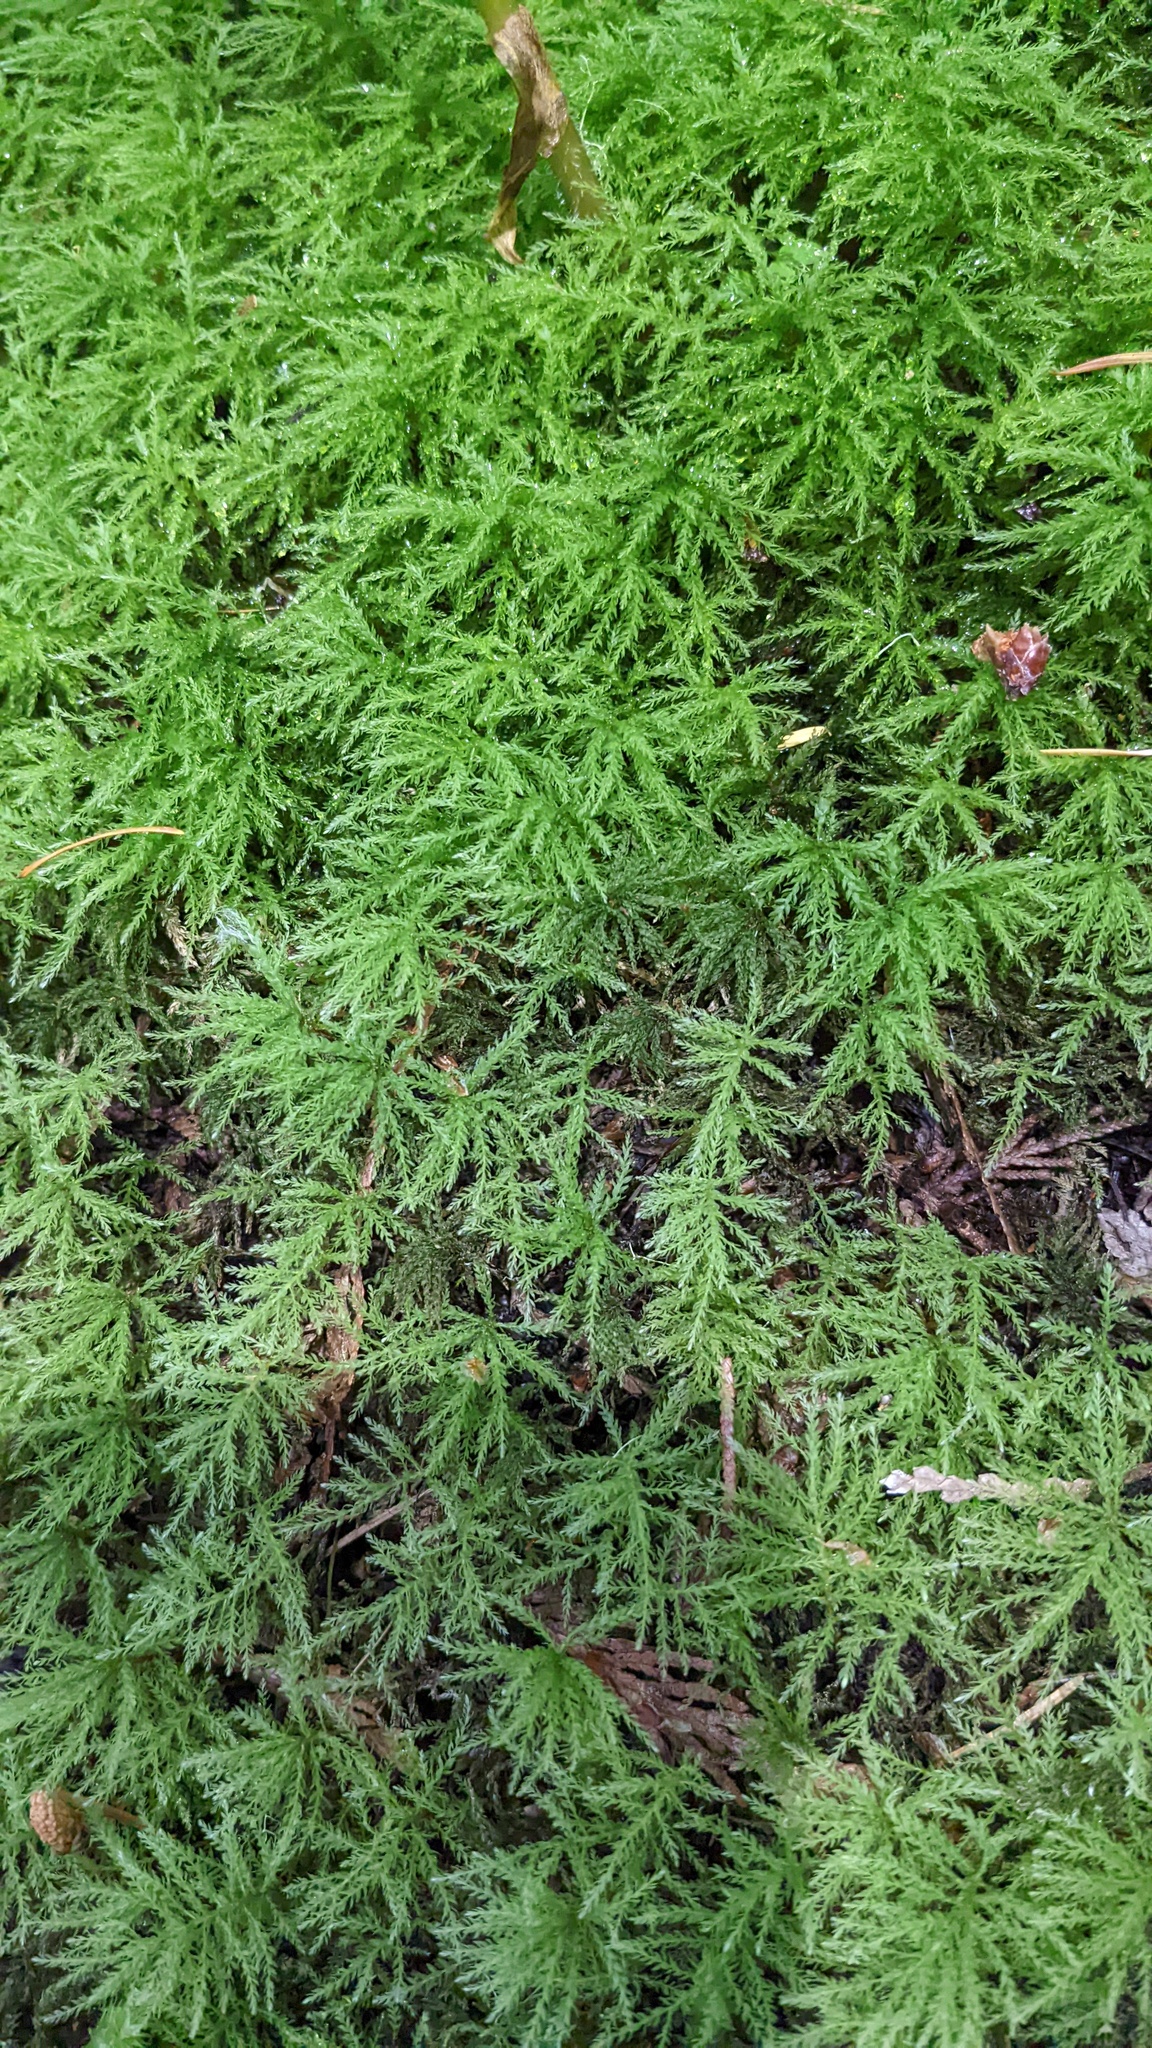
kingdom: Plantae
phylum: Bryophyta
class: Bryopsida
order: Bryales
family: Mniaceae
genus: Leucolepis
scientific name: Leucolepis acanthoneura
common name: Leucolepis umbrella moss
